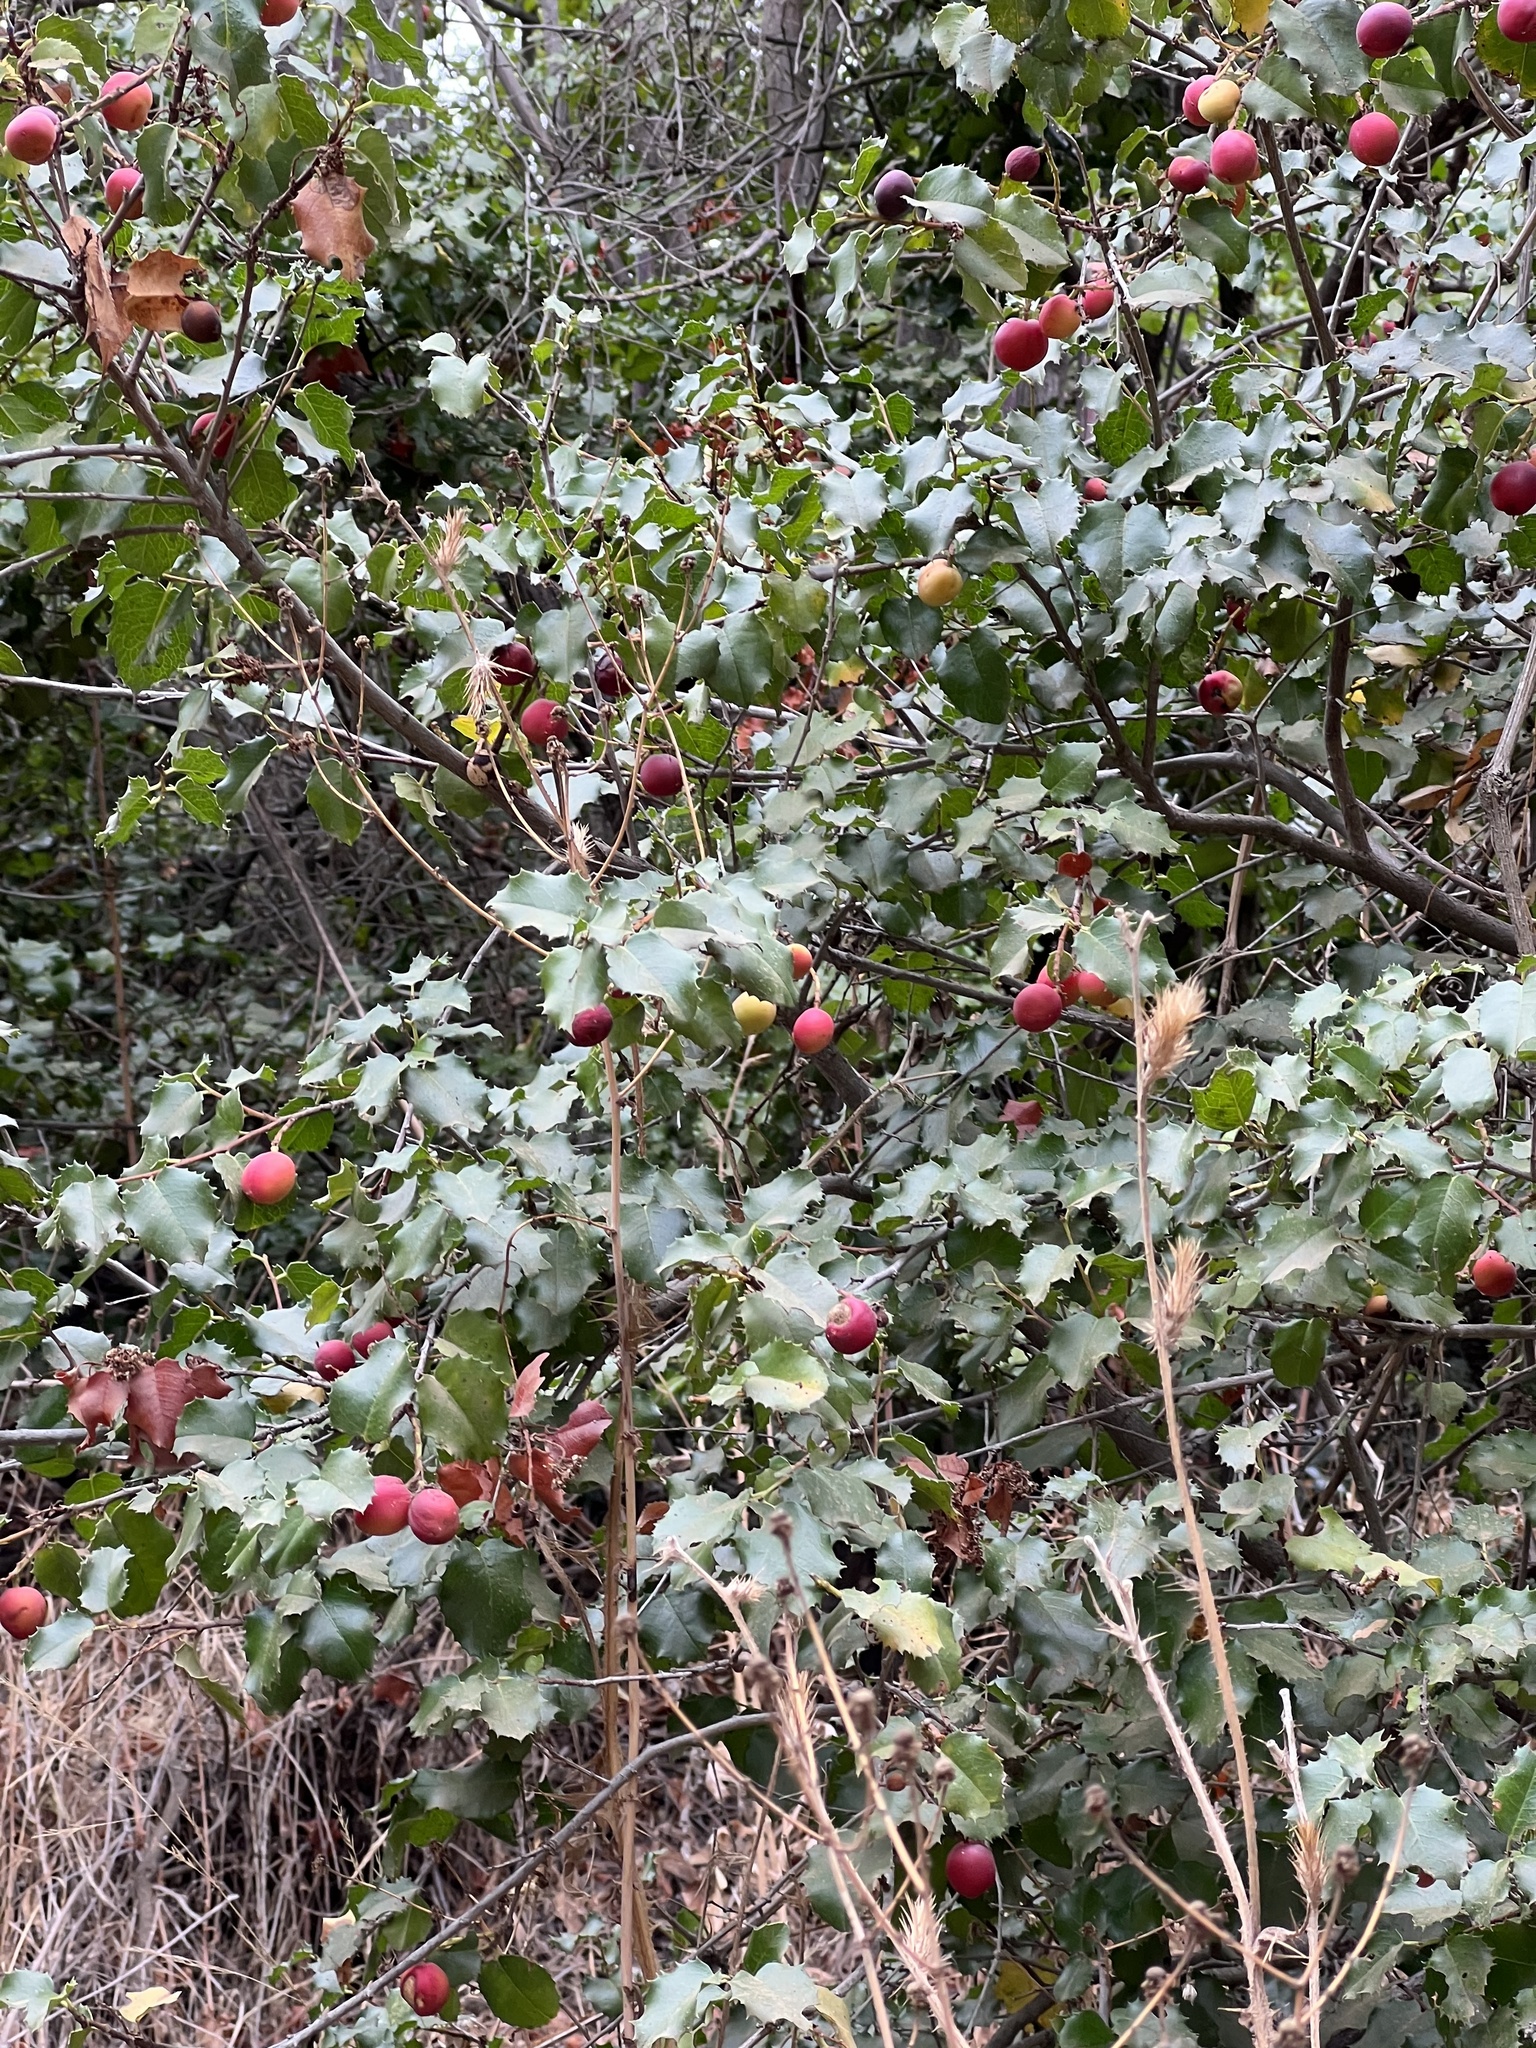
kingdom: Plantae
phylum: Tracheophyta
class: Magnoliopsida
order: Rosales
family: Rosaceae
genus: Prunus
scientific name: Prunus ilicifolia
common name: Hollyleaf cherry
